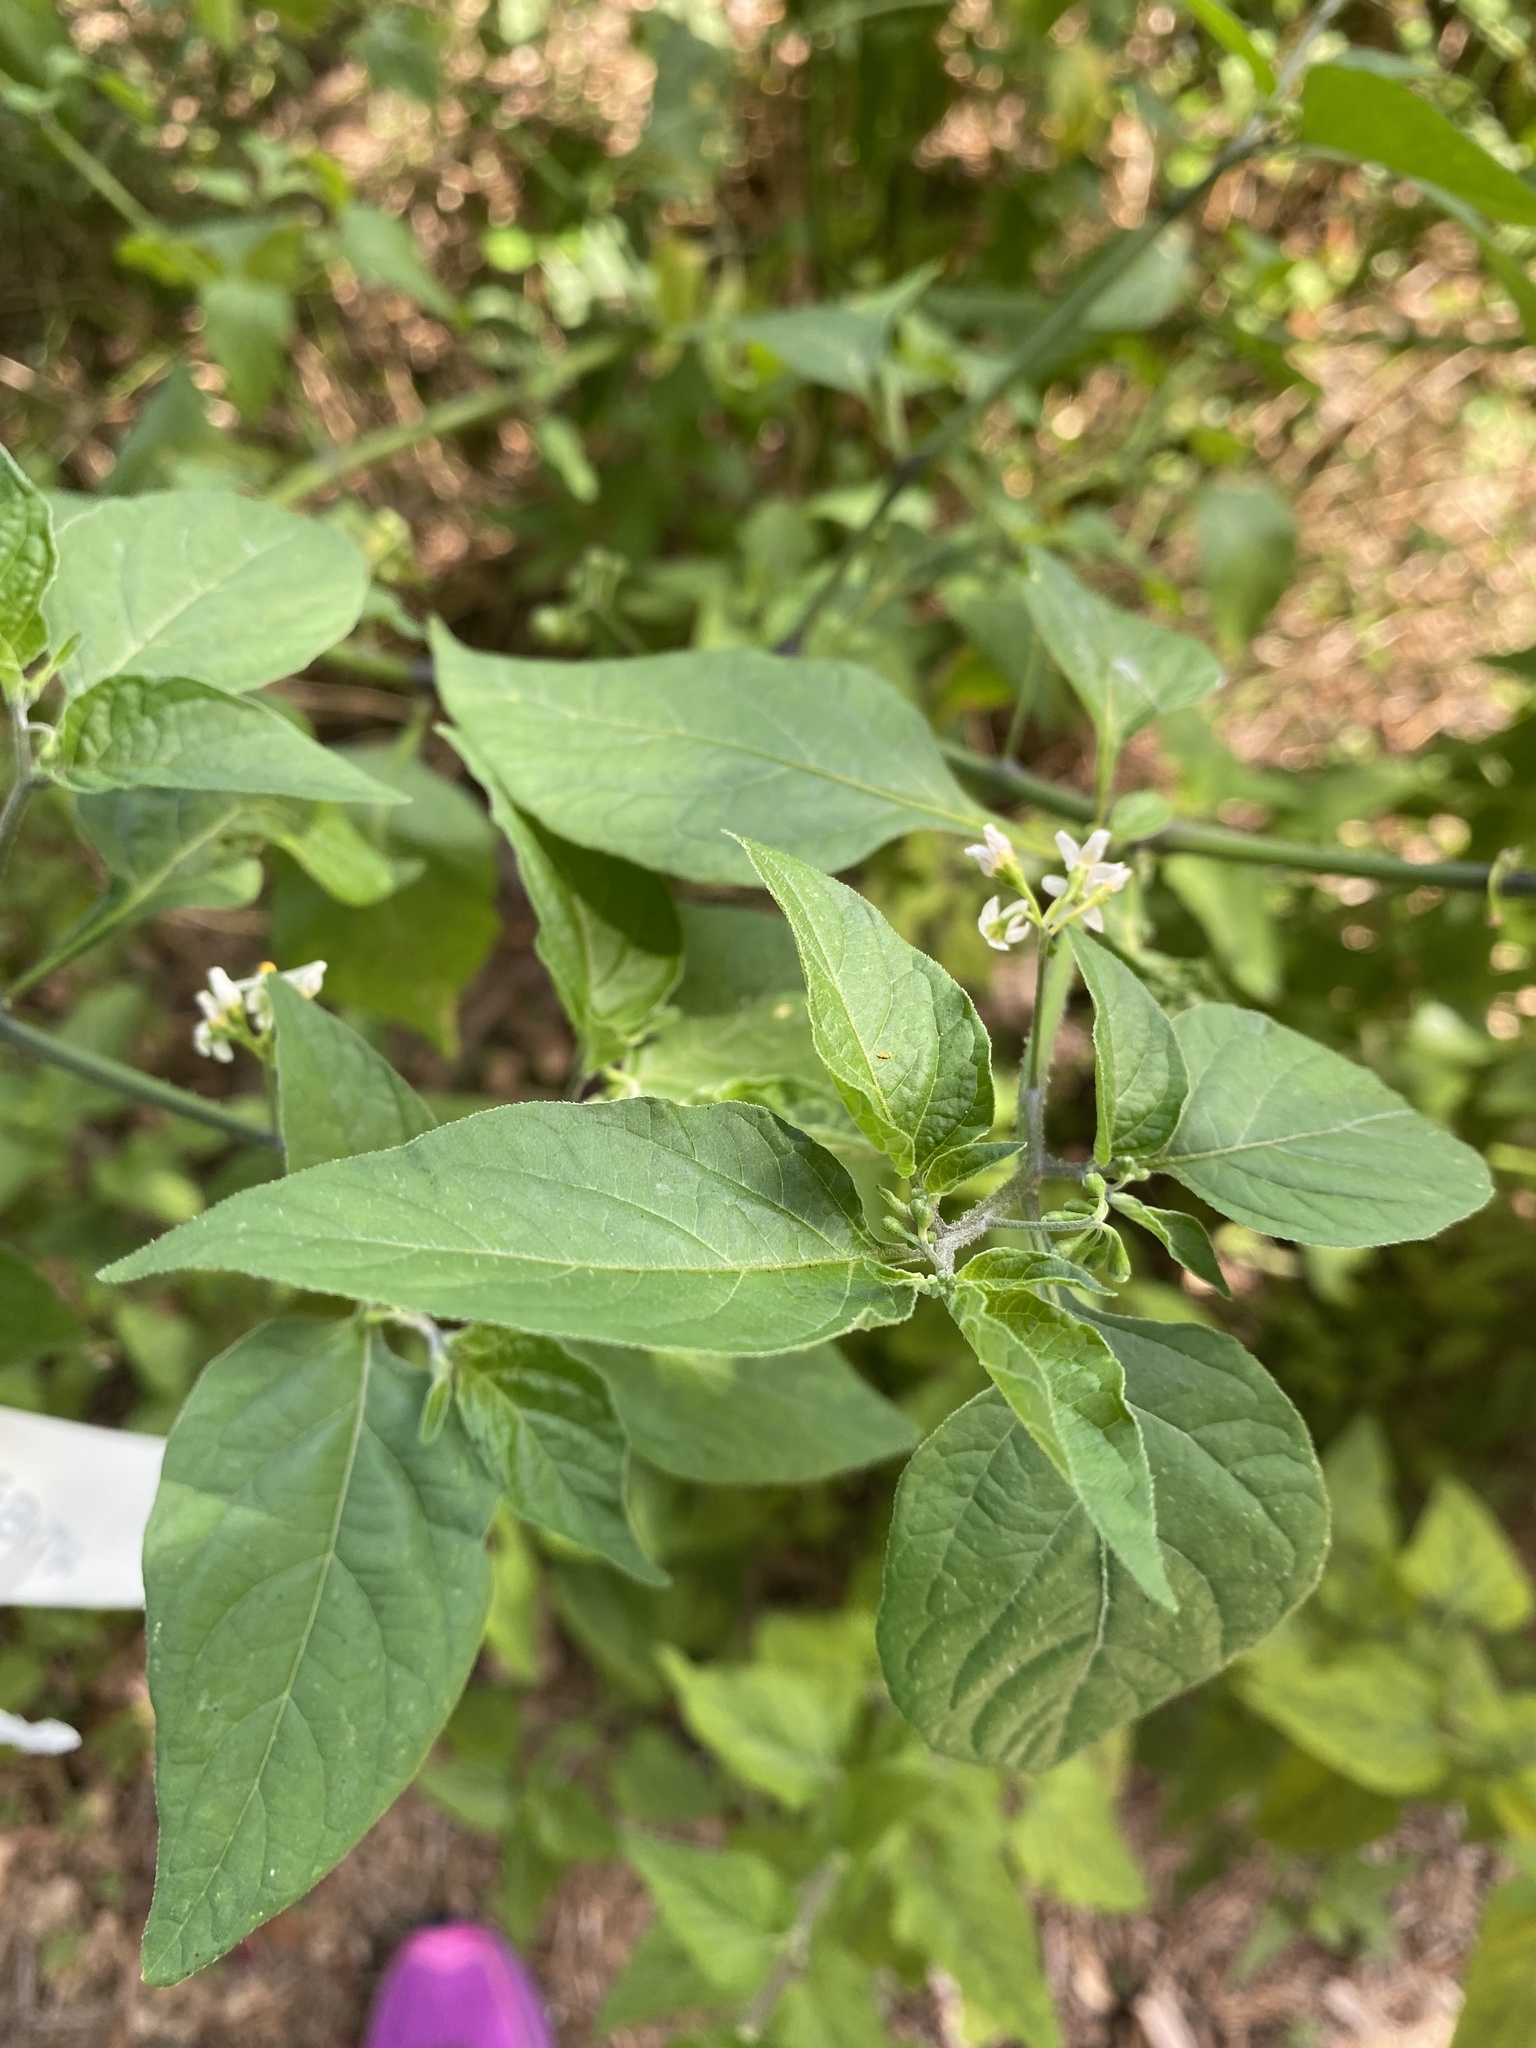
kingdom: Plantae
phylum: Tracheophyta
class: Magnoliopsida
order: Caryophyllales
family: Phytolaccaceae
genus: Rivina
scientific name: Rivina humilis
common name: Rougeplant
